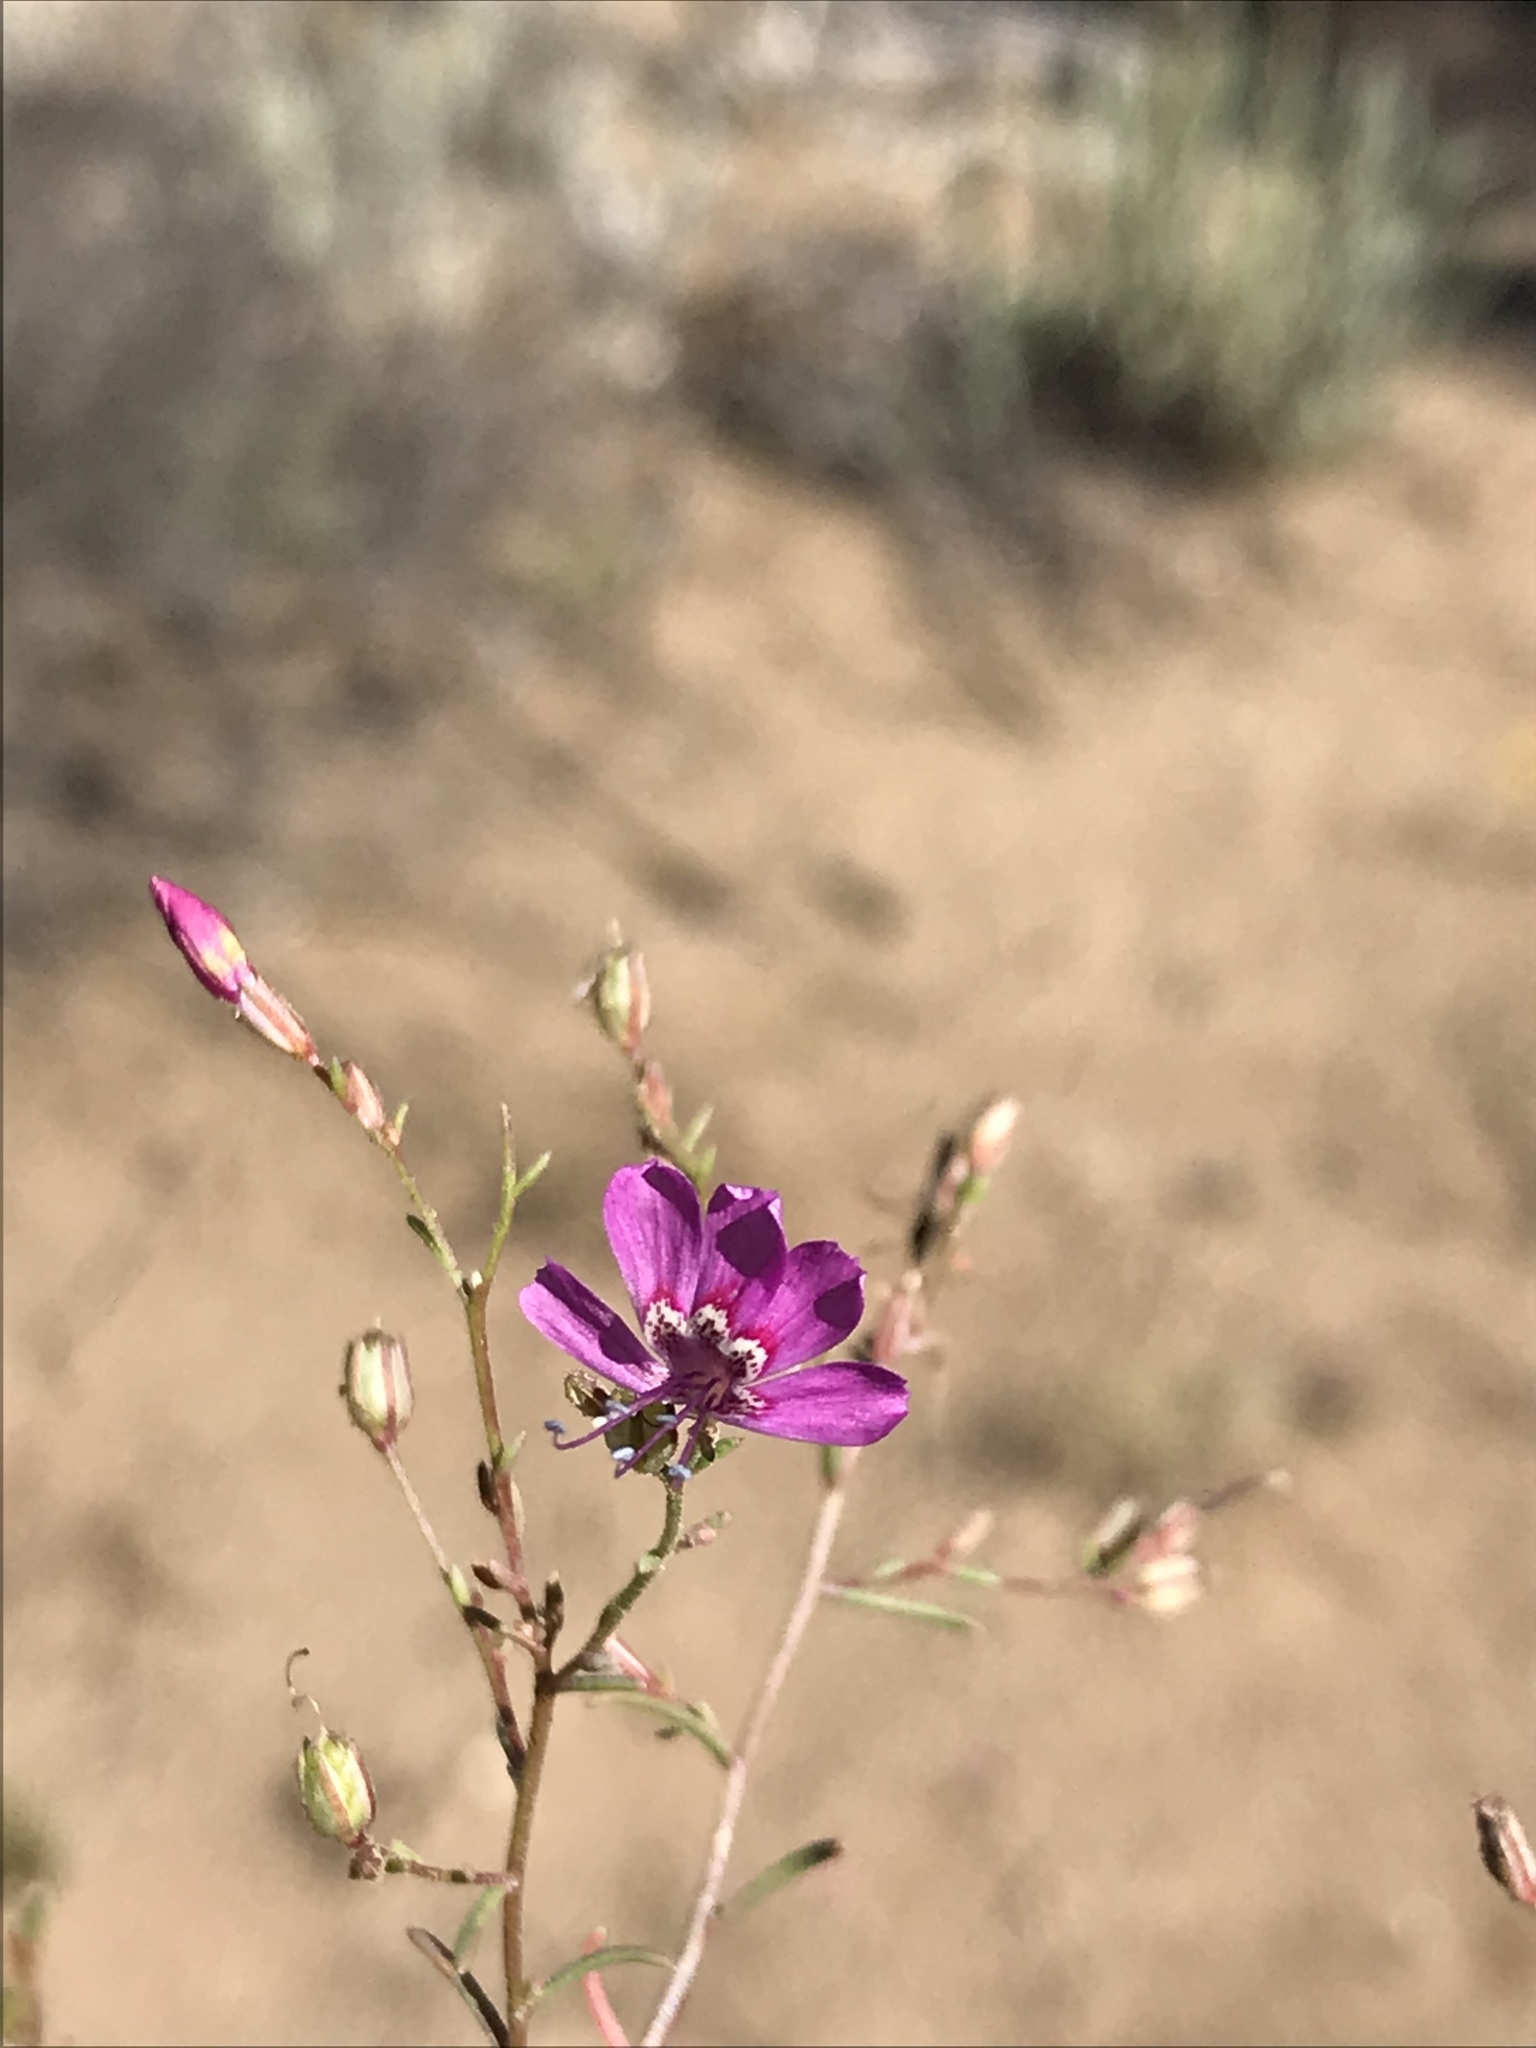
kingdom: Plantae
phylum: Tracheophyta
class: Magnoliopsida
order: Ericales
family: Polemoniaceae
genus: Ipomopsis
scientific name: Ipomopsis effusa
